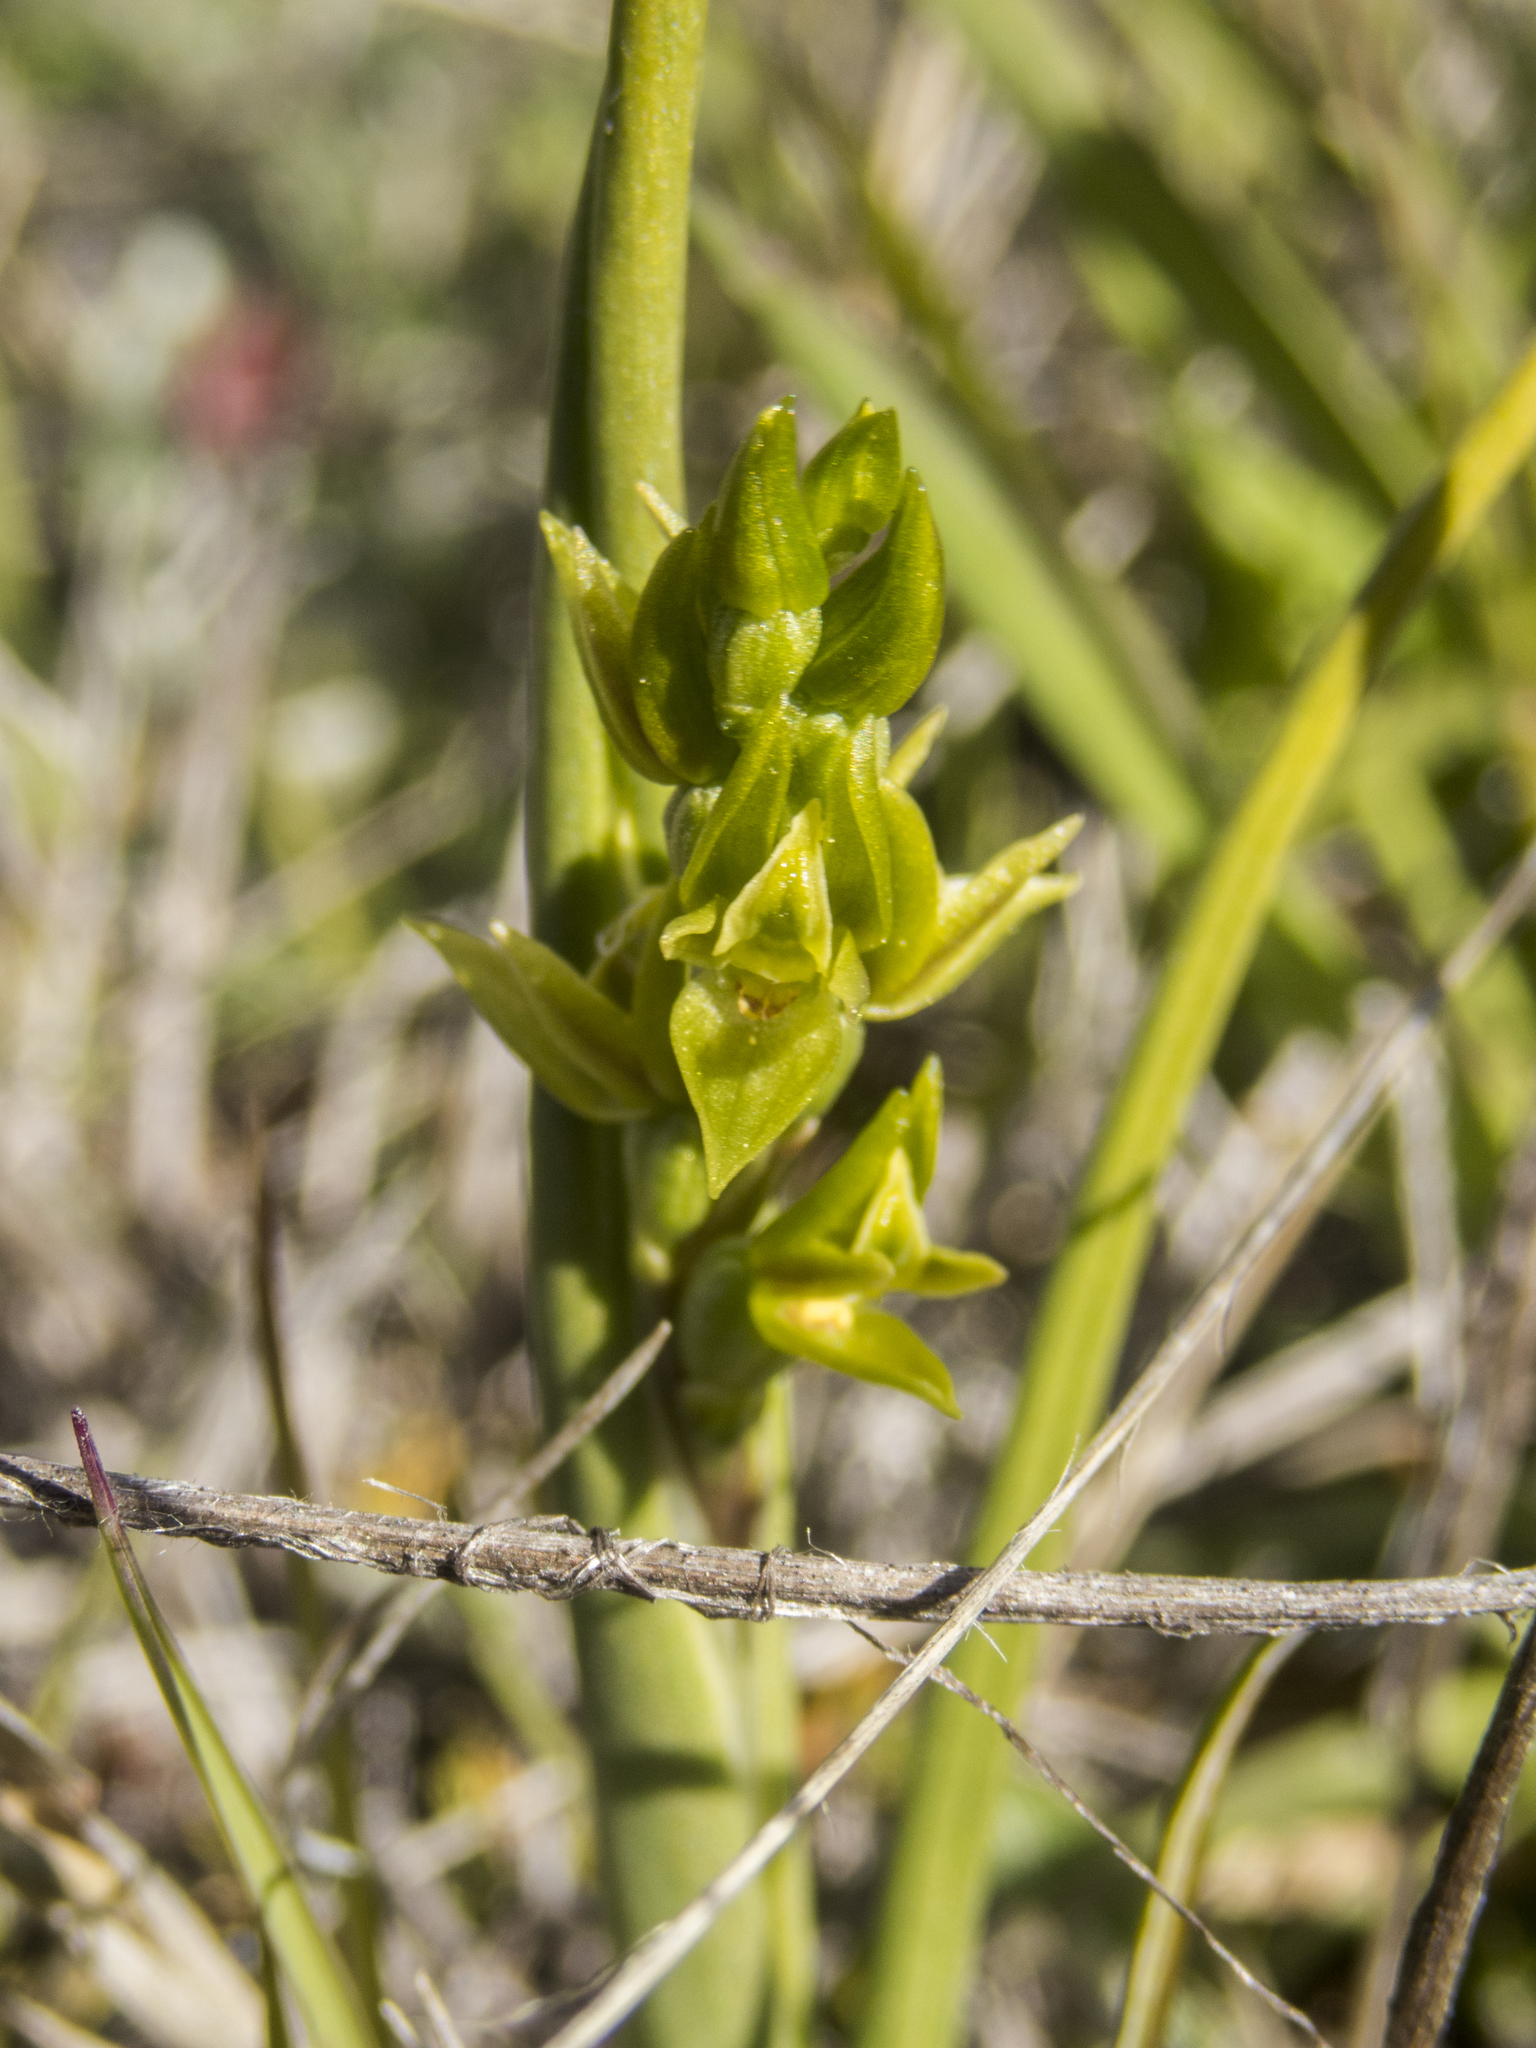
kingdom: Plantae
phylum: Tracheophyta
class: Liliopsida
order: Asparagales
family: Orchidaceae
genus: Prasophyllum
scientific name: Prasophyllum colensoi
